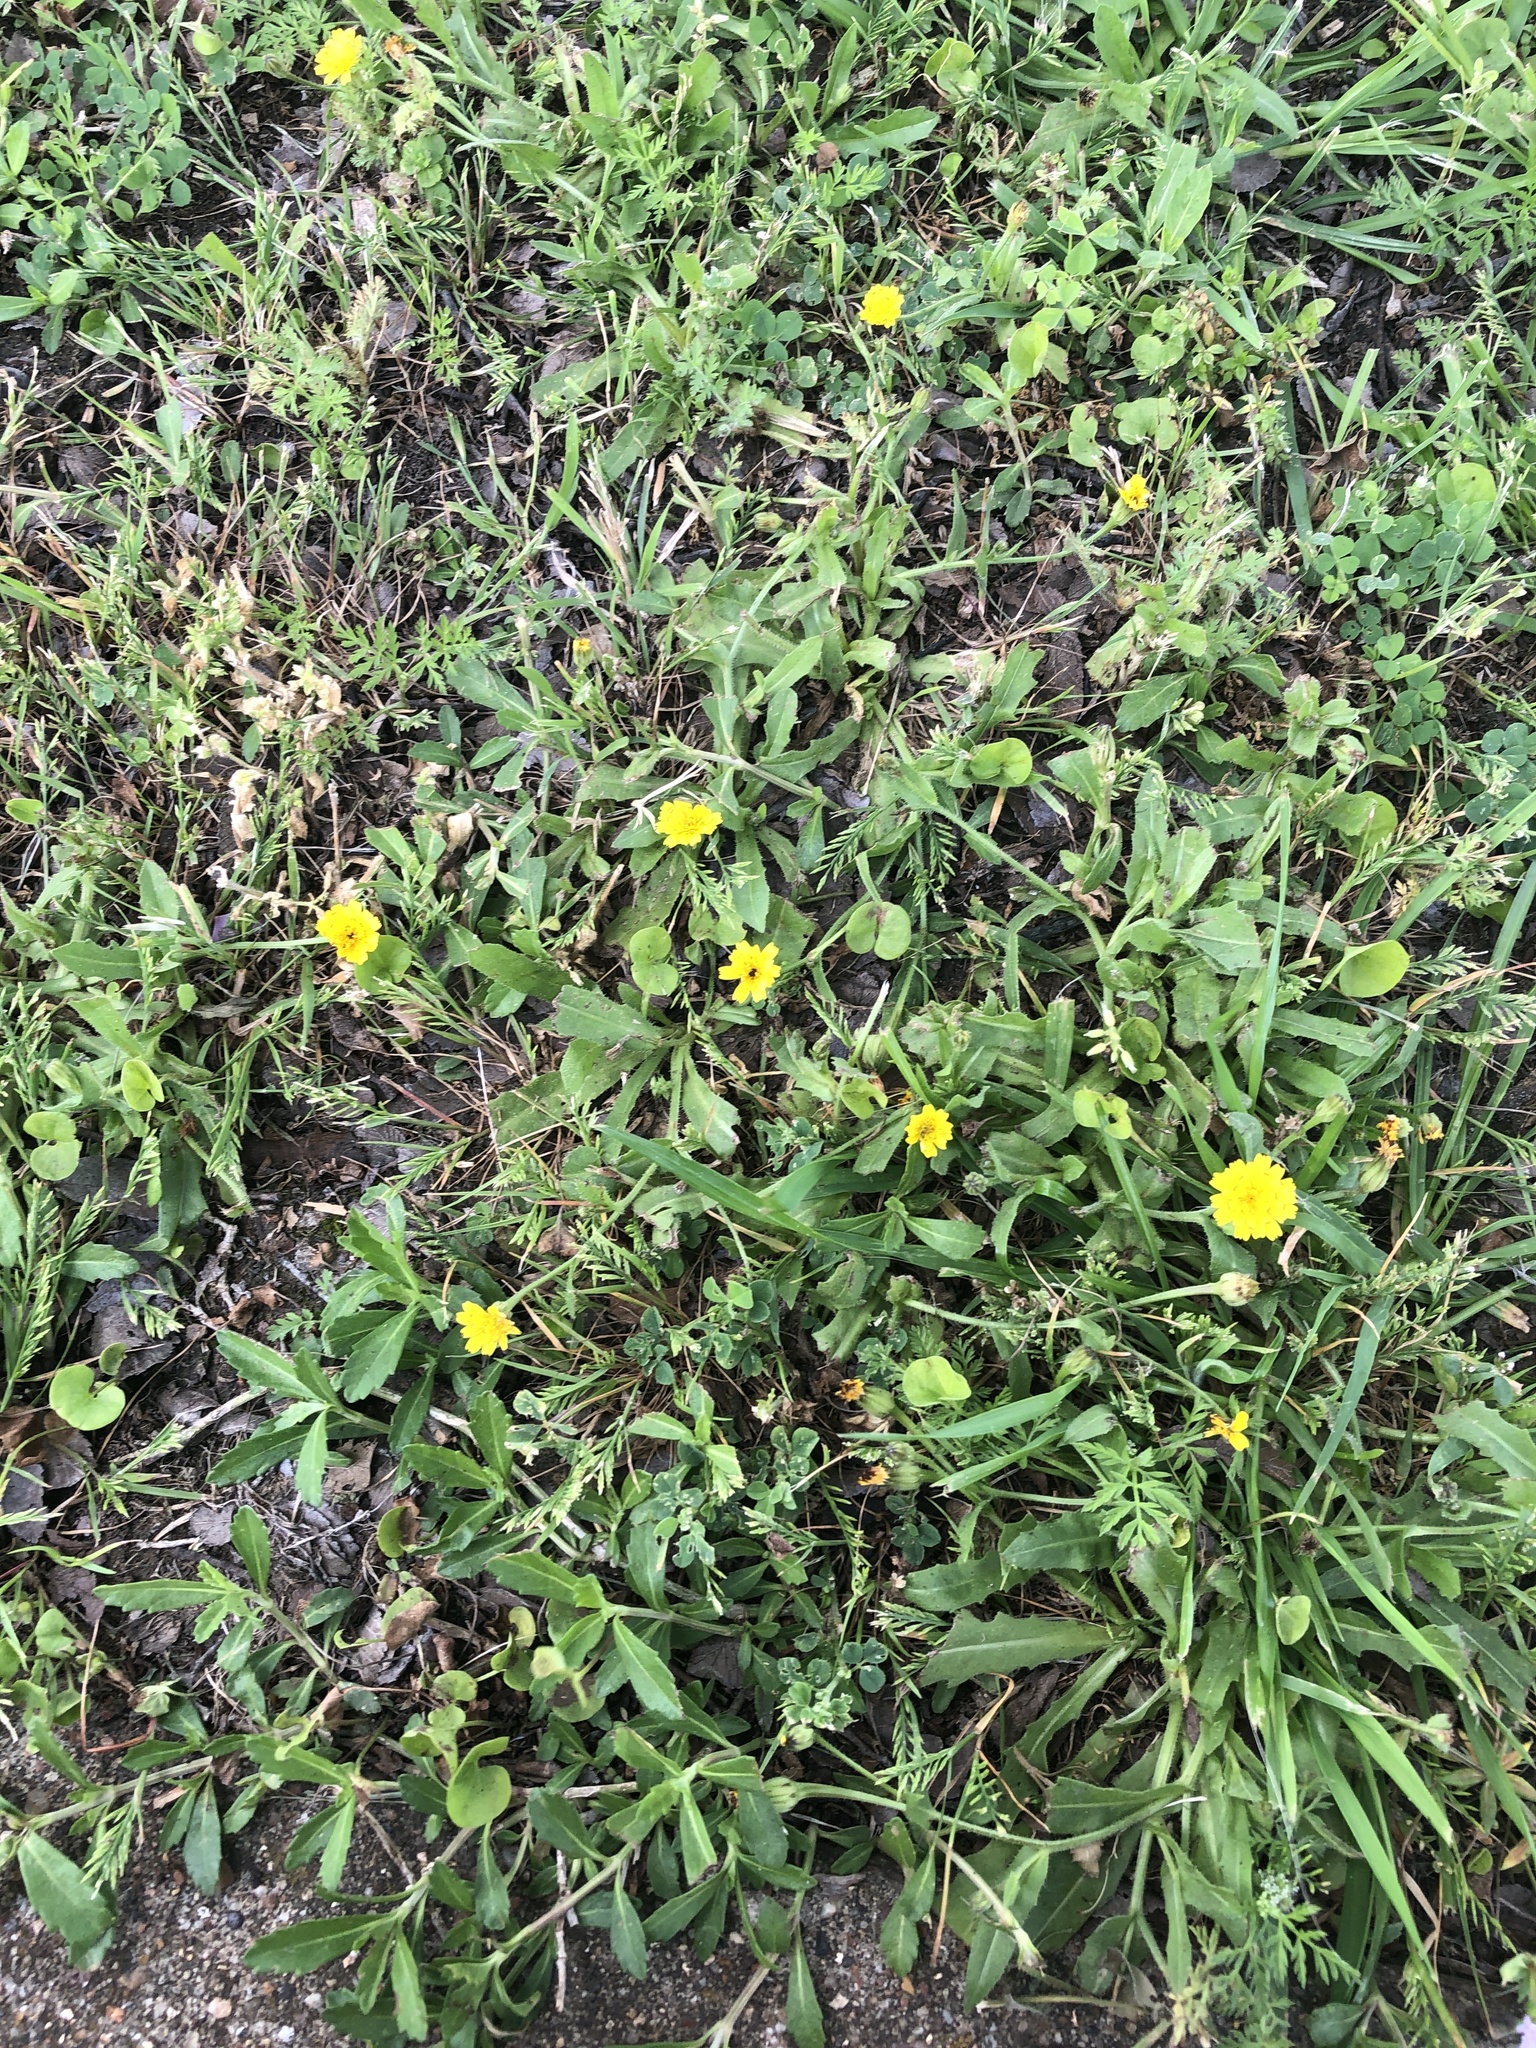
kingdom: Plantae
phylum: Tracheophyta
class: Magnoliopsida
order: Asterales
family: Asteraceae
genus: Hedypnois
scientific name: Hedypnois rhagadioloides
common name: Cretan weed
